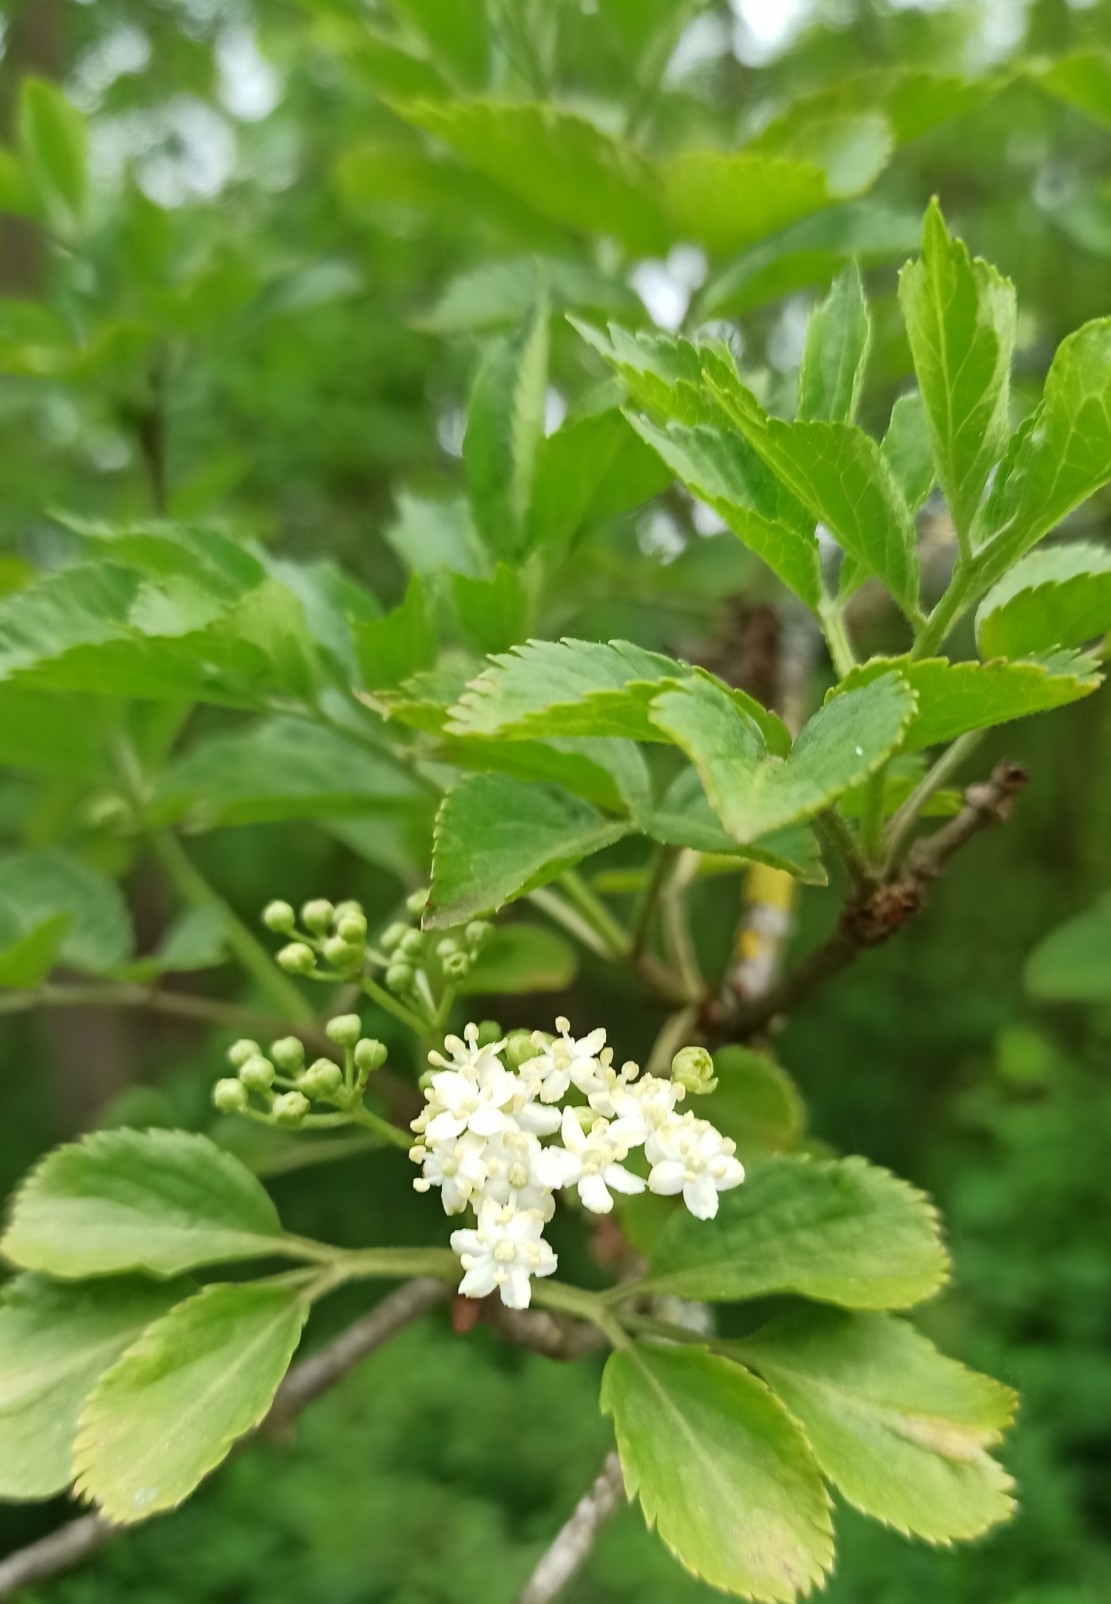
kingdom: Plantae
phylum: Tracheophyta
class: Magnoliopsida
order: Dipsacales
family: Viburnaceae
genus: Sambucus
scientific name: Sambucus nigra
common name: Elder
